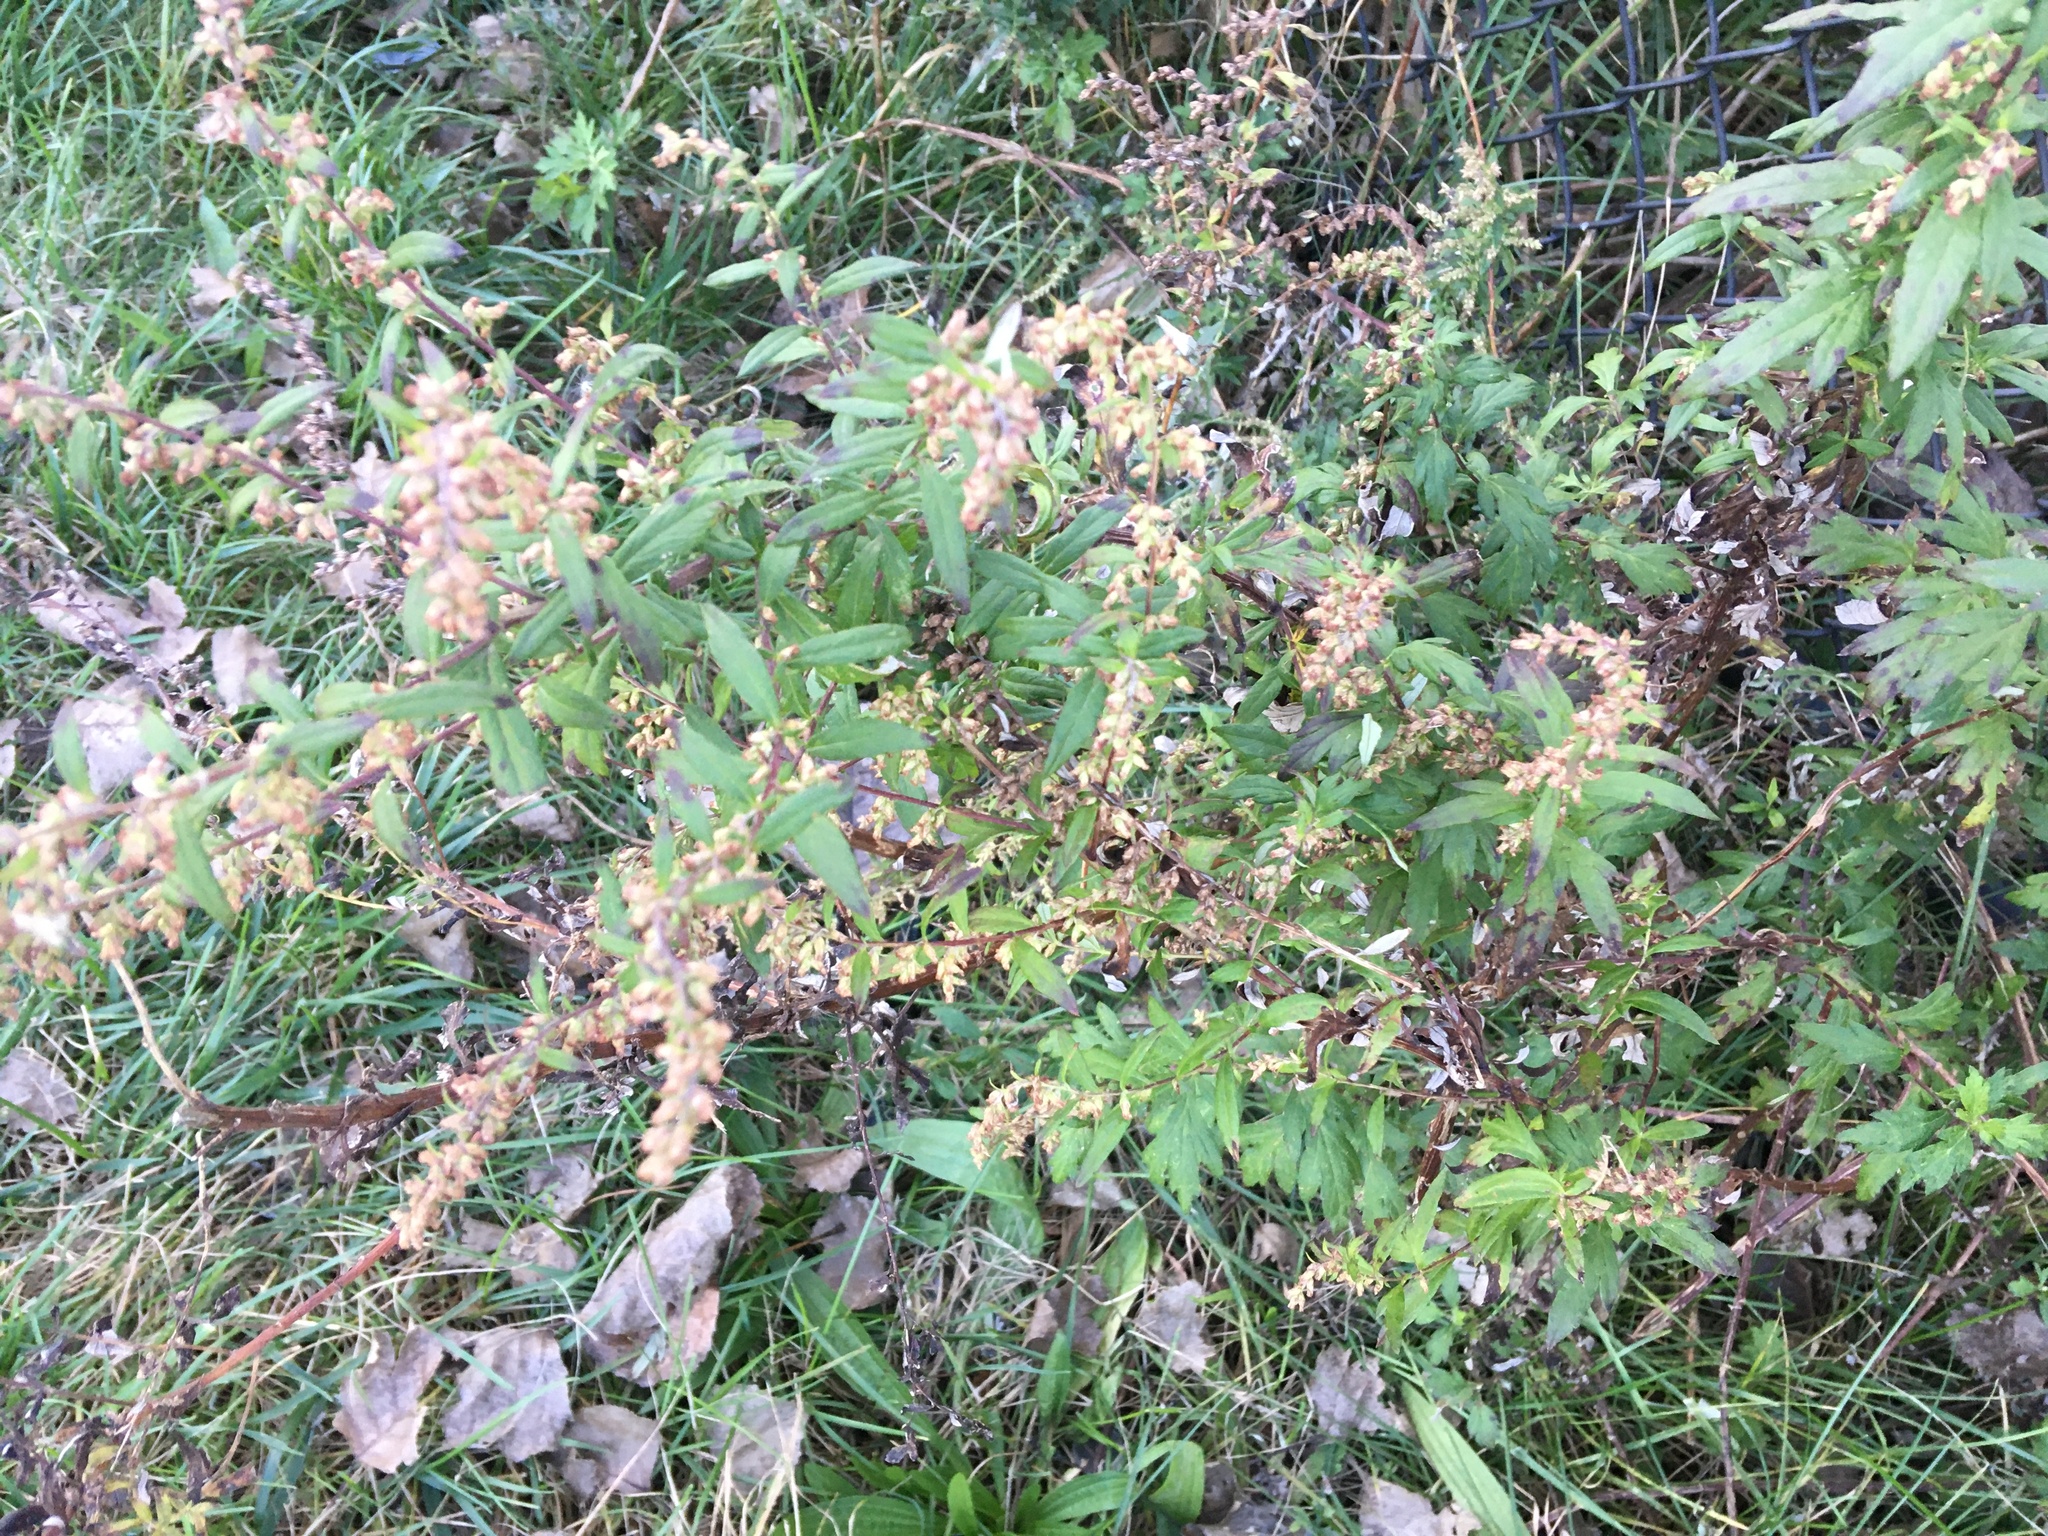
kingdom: Plantae
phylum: Tracheophyta
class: Magnoliopsida
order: Asterales
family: Asteraceae
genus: Artemisia
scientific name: Artemisia vulgaris
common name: Mugwort
